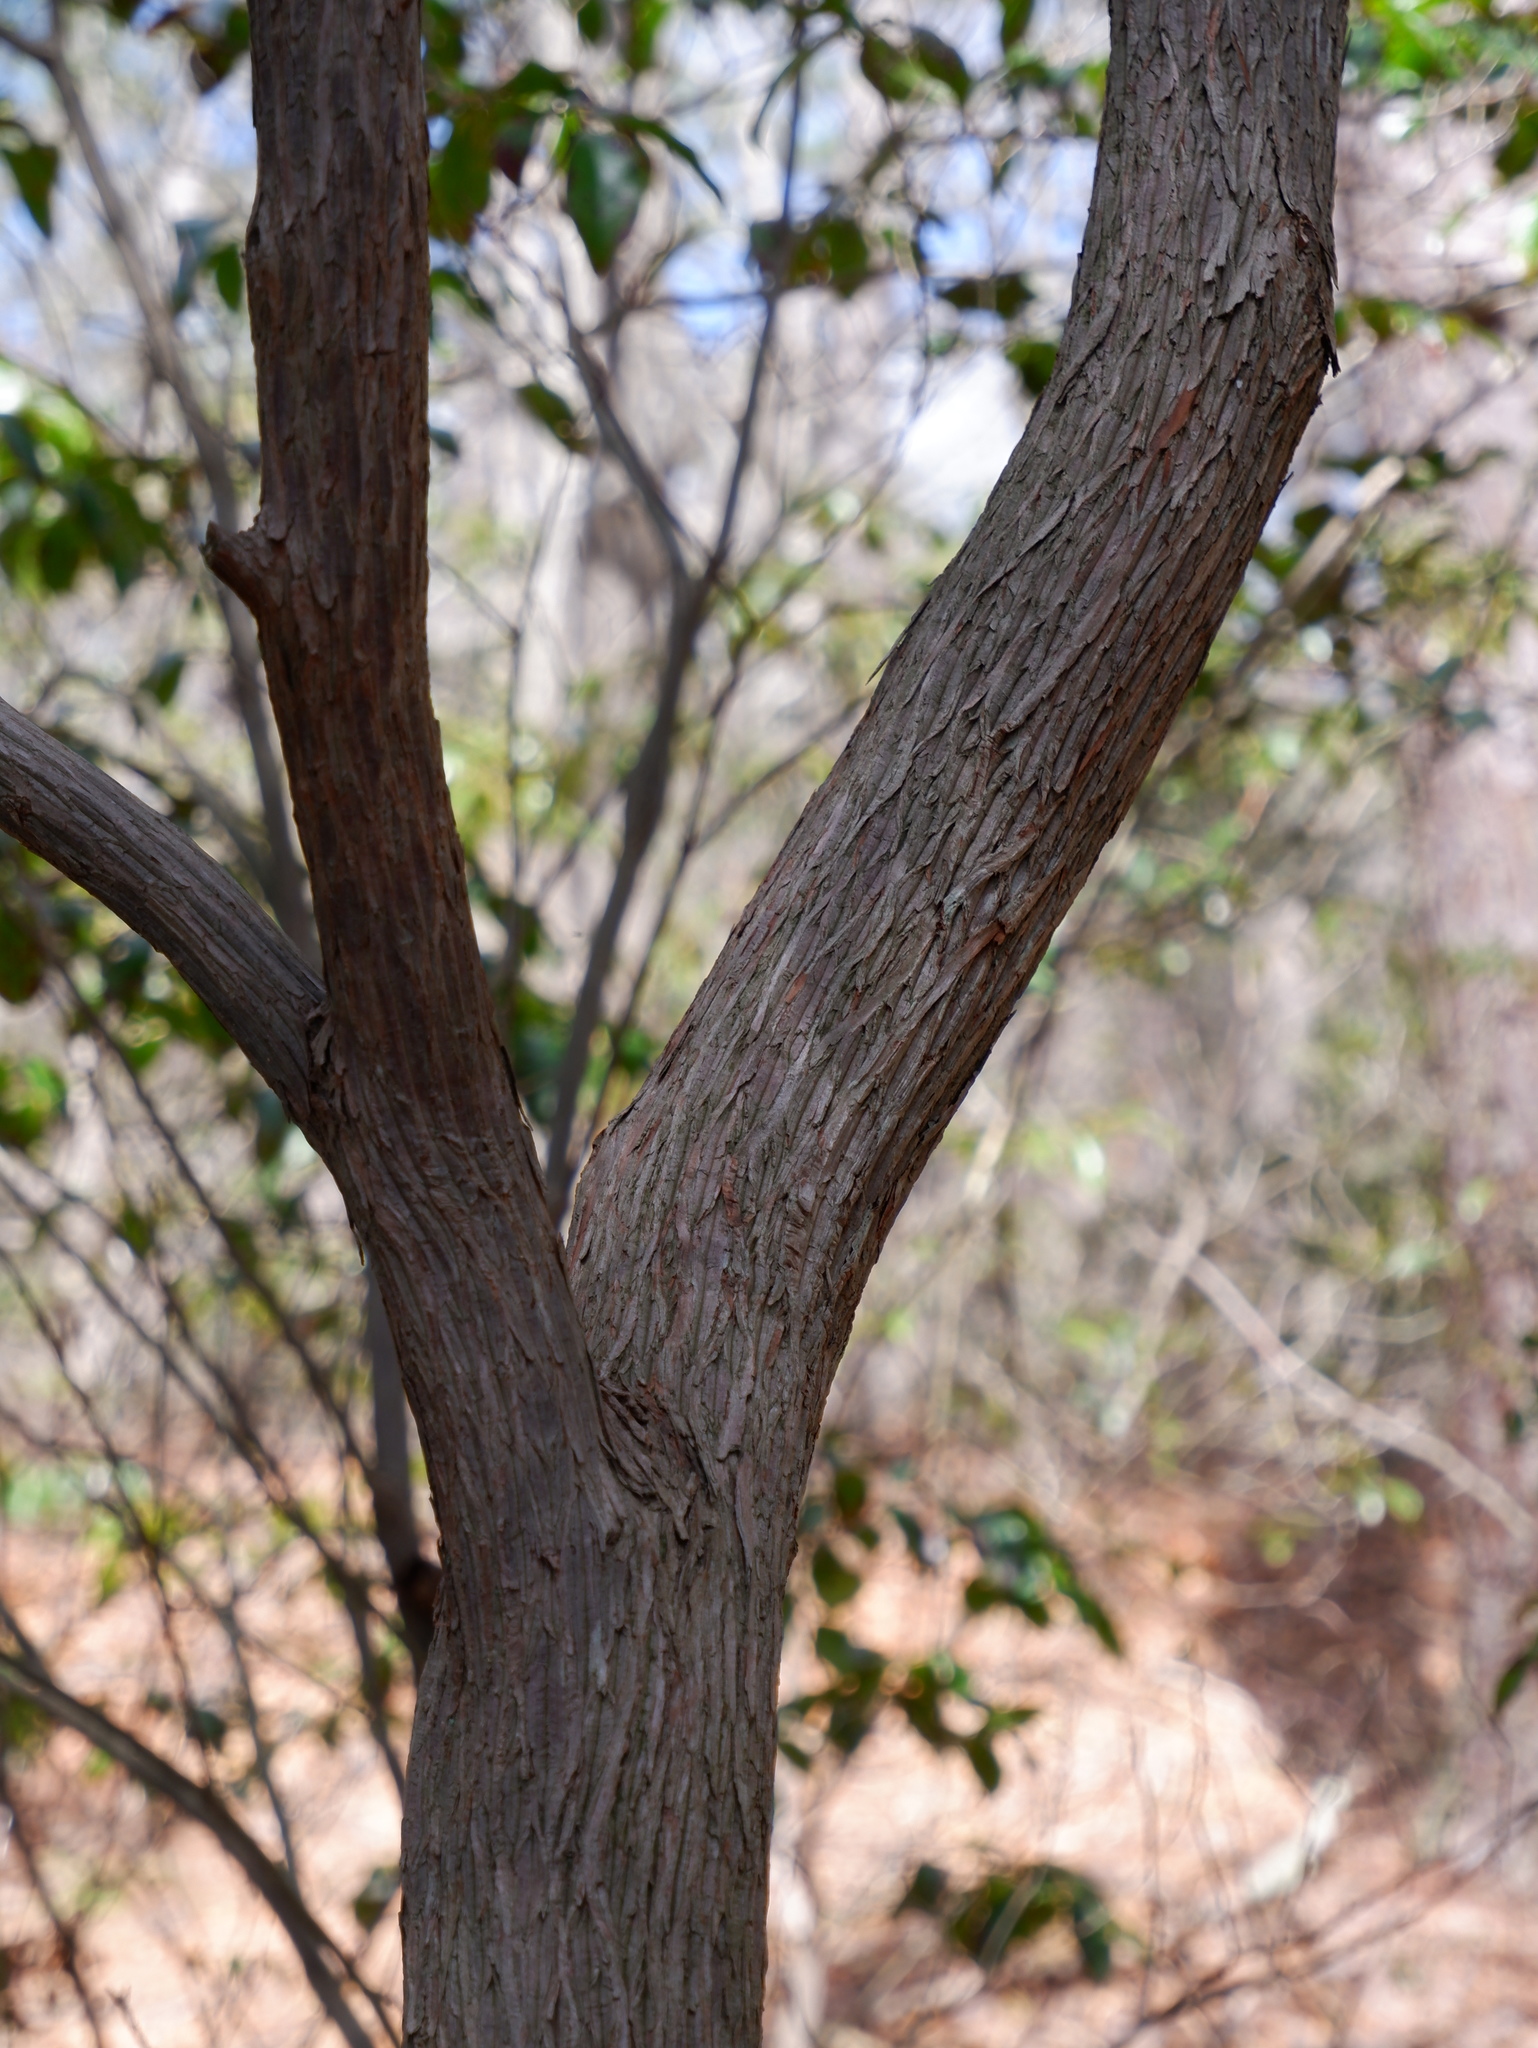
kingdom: Plantae
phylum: Tracheophyta
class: Magnoliopsida
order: Ericales
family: Ericaceae
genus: Kalmia
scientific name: Kalmia latifolia
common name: Mountain-laurel
